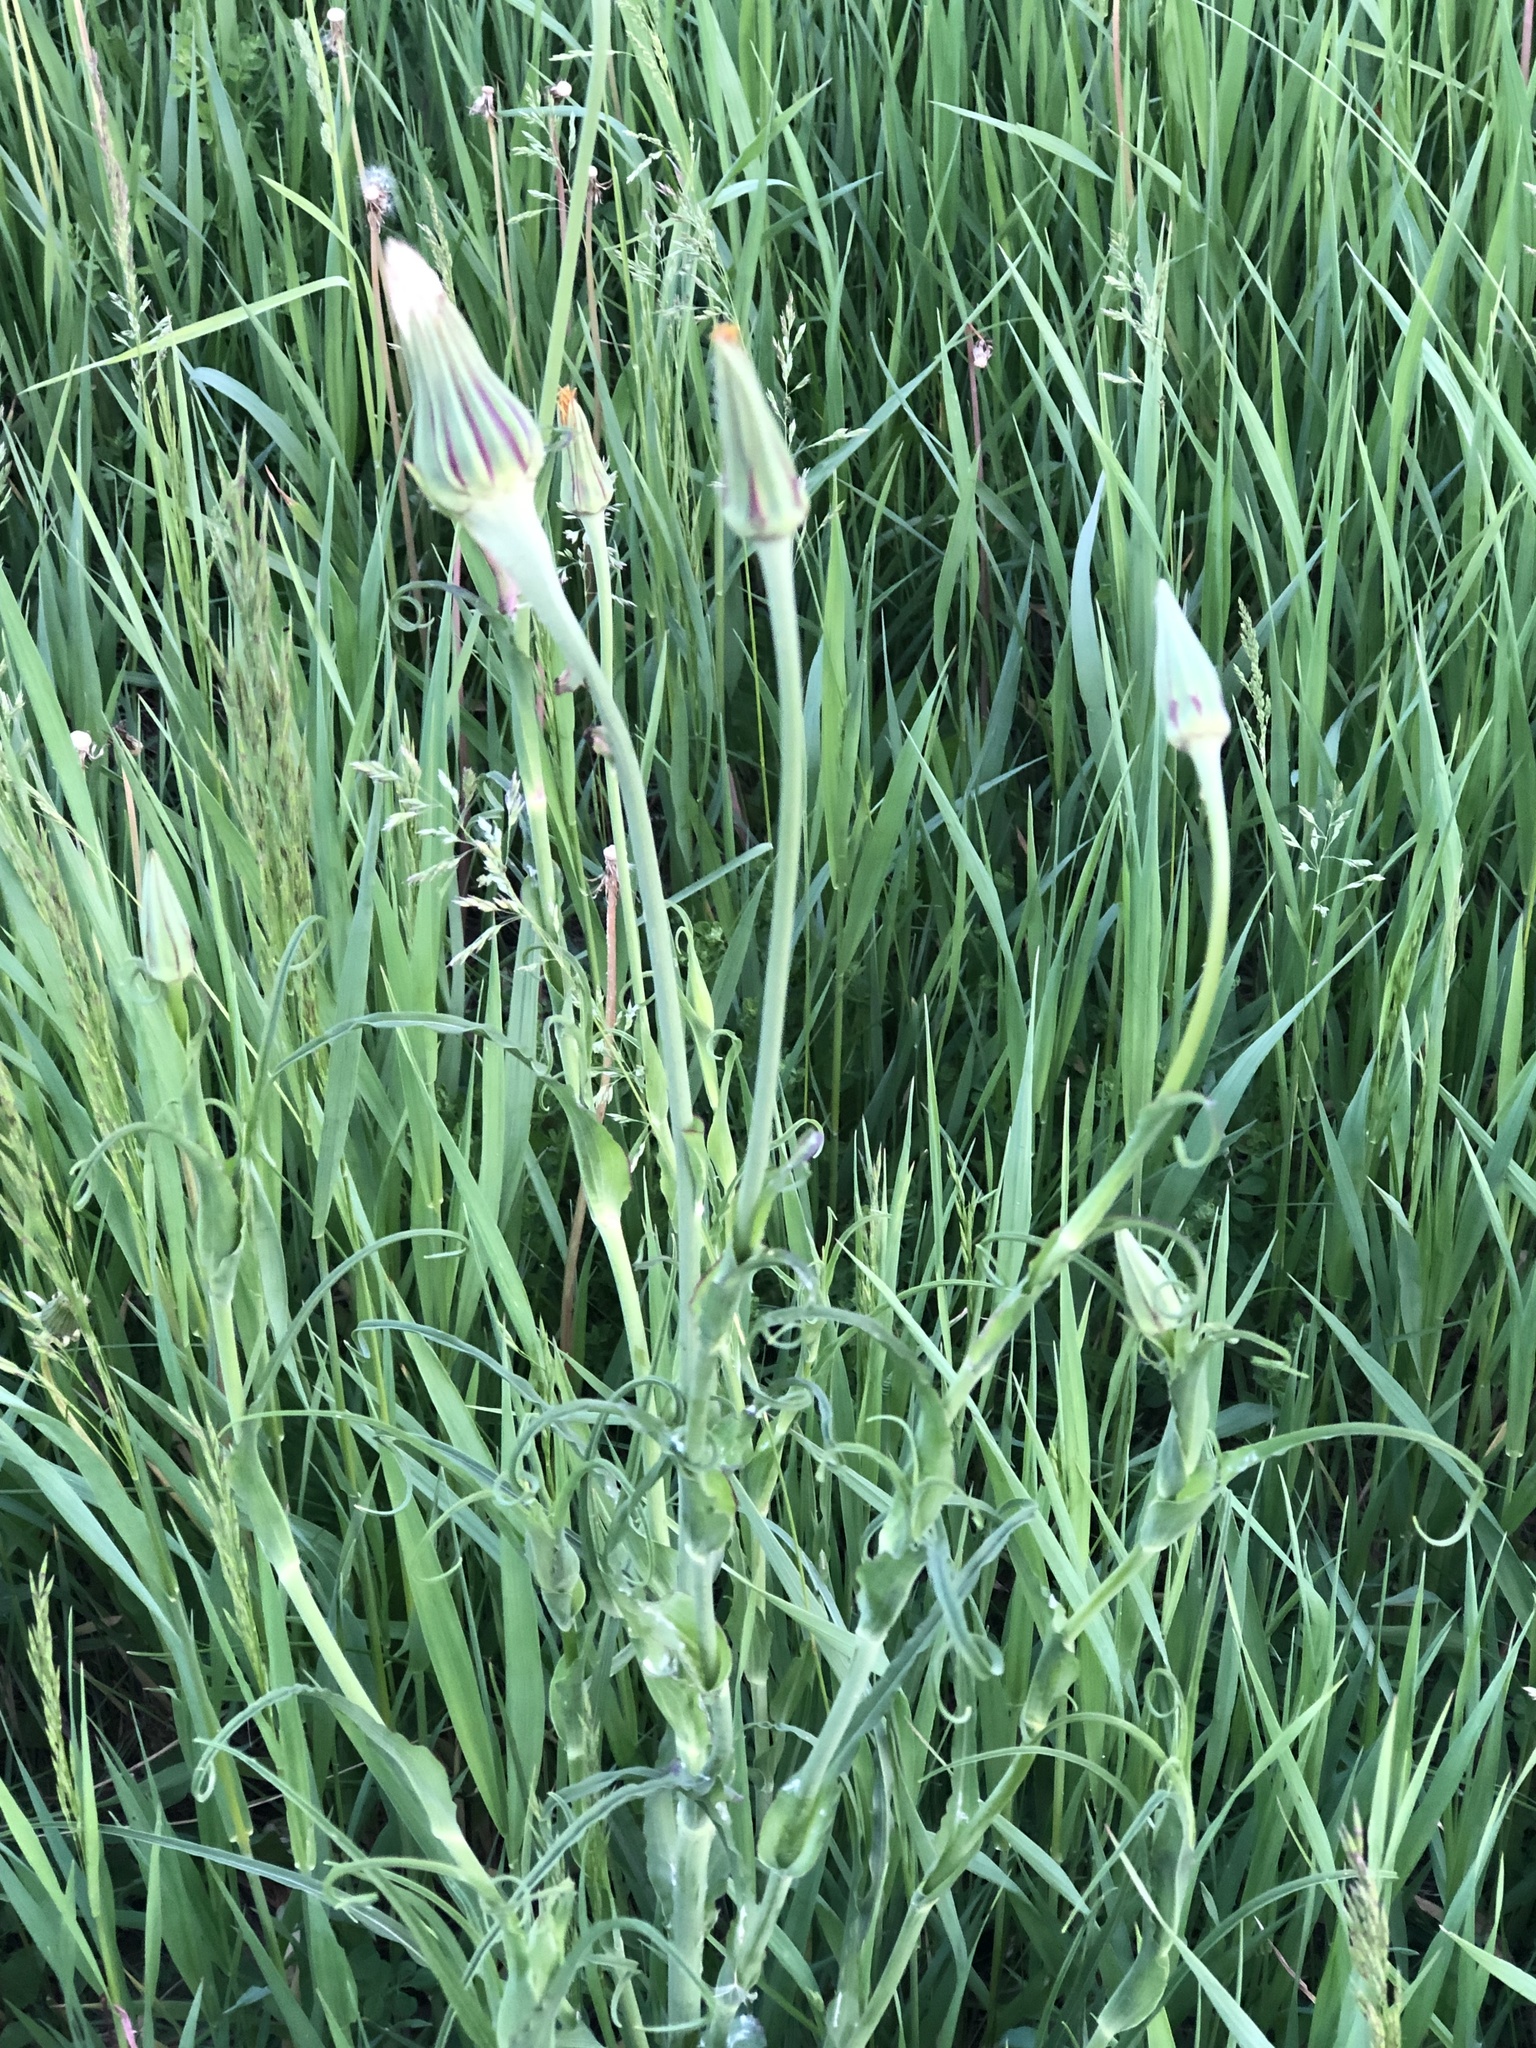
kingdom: Plantae
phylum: Tracheophyta
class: Magnoliopsida
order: Asterales
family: Asteraceae
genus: Tragopogon
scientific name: Tragopogon pratensis
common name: Goat's-beard
